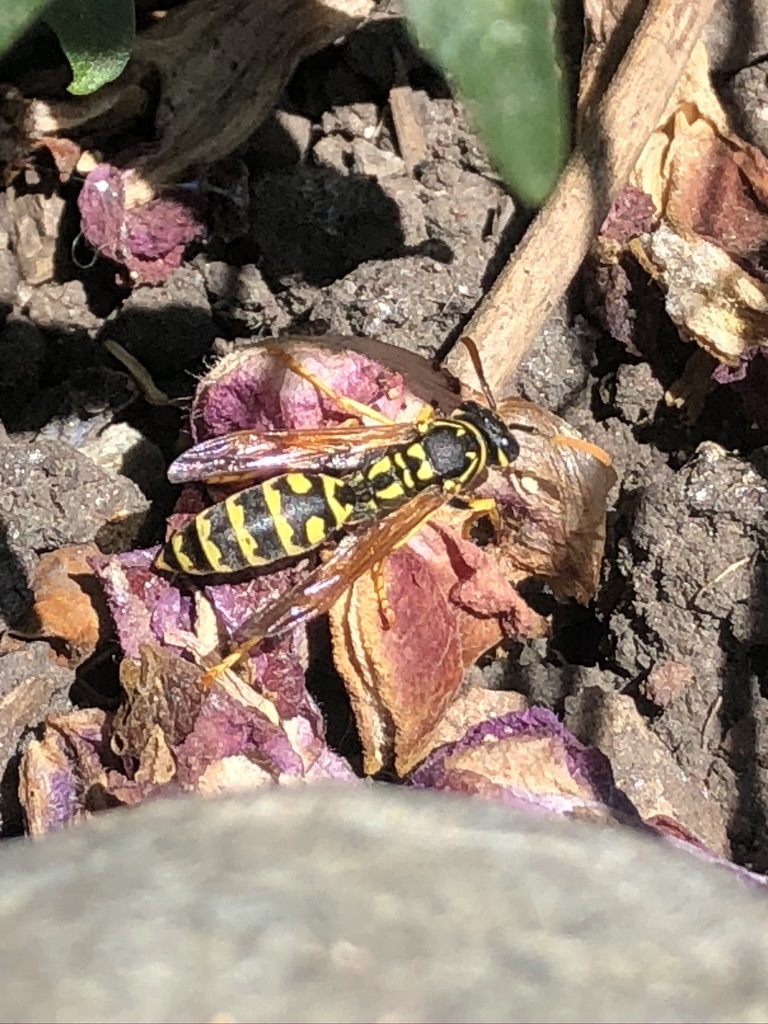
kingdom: Animalia
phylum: Arthropoda
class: Insecta
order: Hymenoptera
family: Eumenidae
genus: Polistes
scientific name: Polistes dominula
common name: Paper wasp
